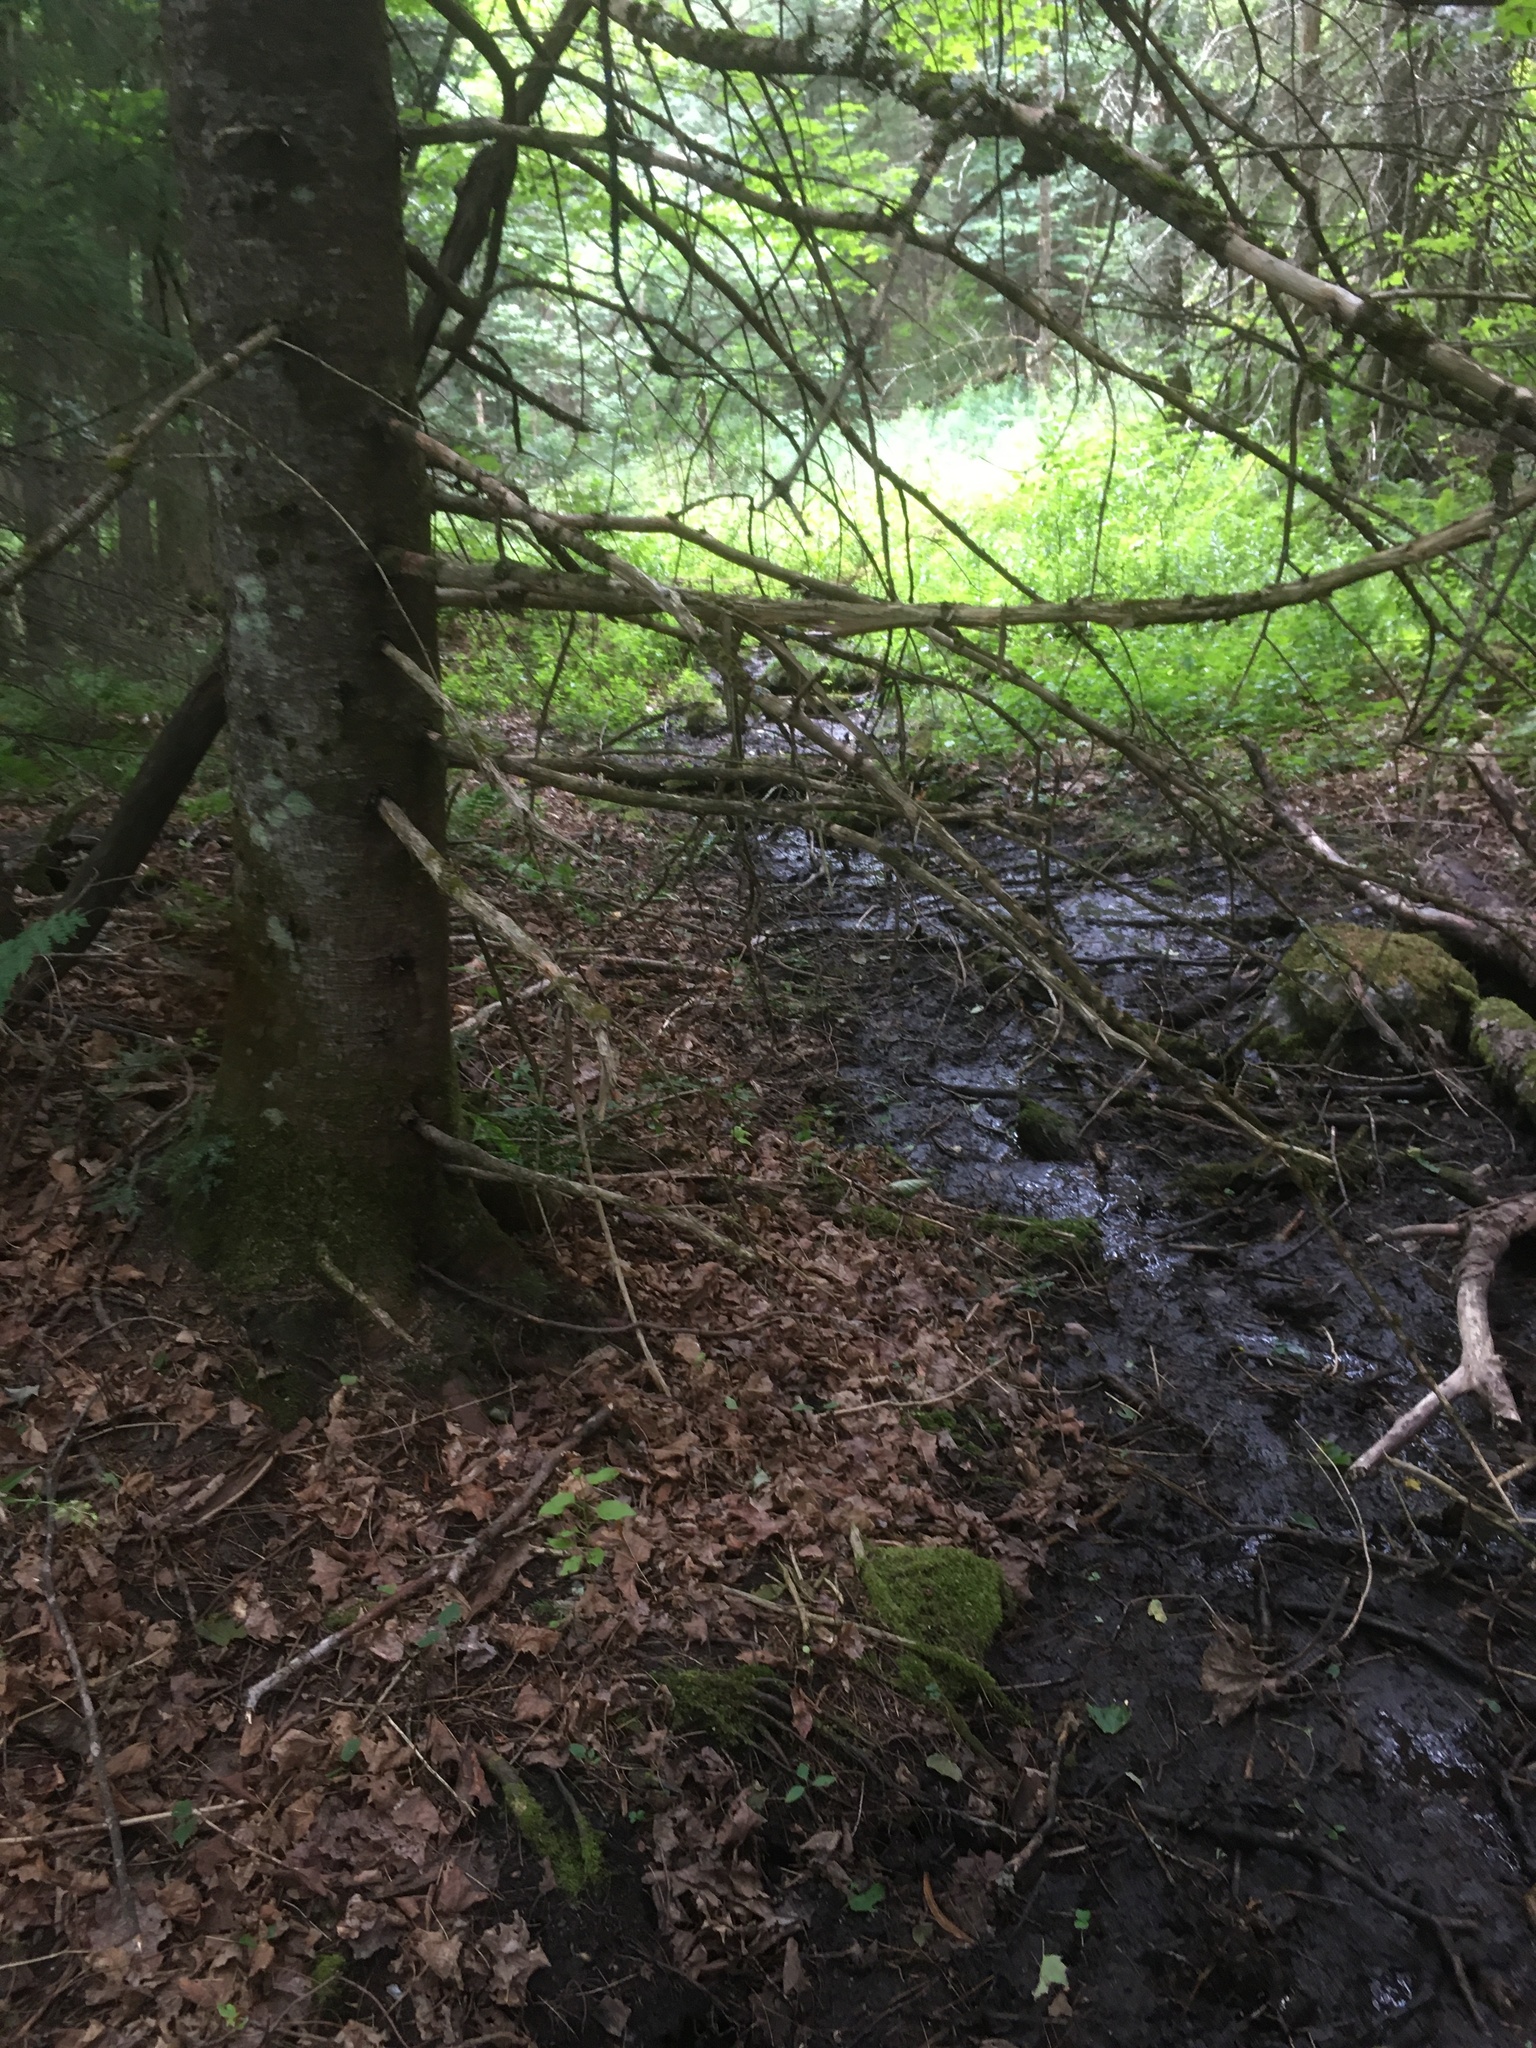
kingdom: Plantae
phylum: Tracheophyta
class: Pinopsida
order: Pinales
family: Pinaceae
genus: Abies
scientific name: Abies balsamea
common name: Balsam fir
